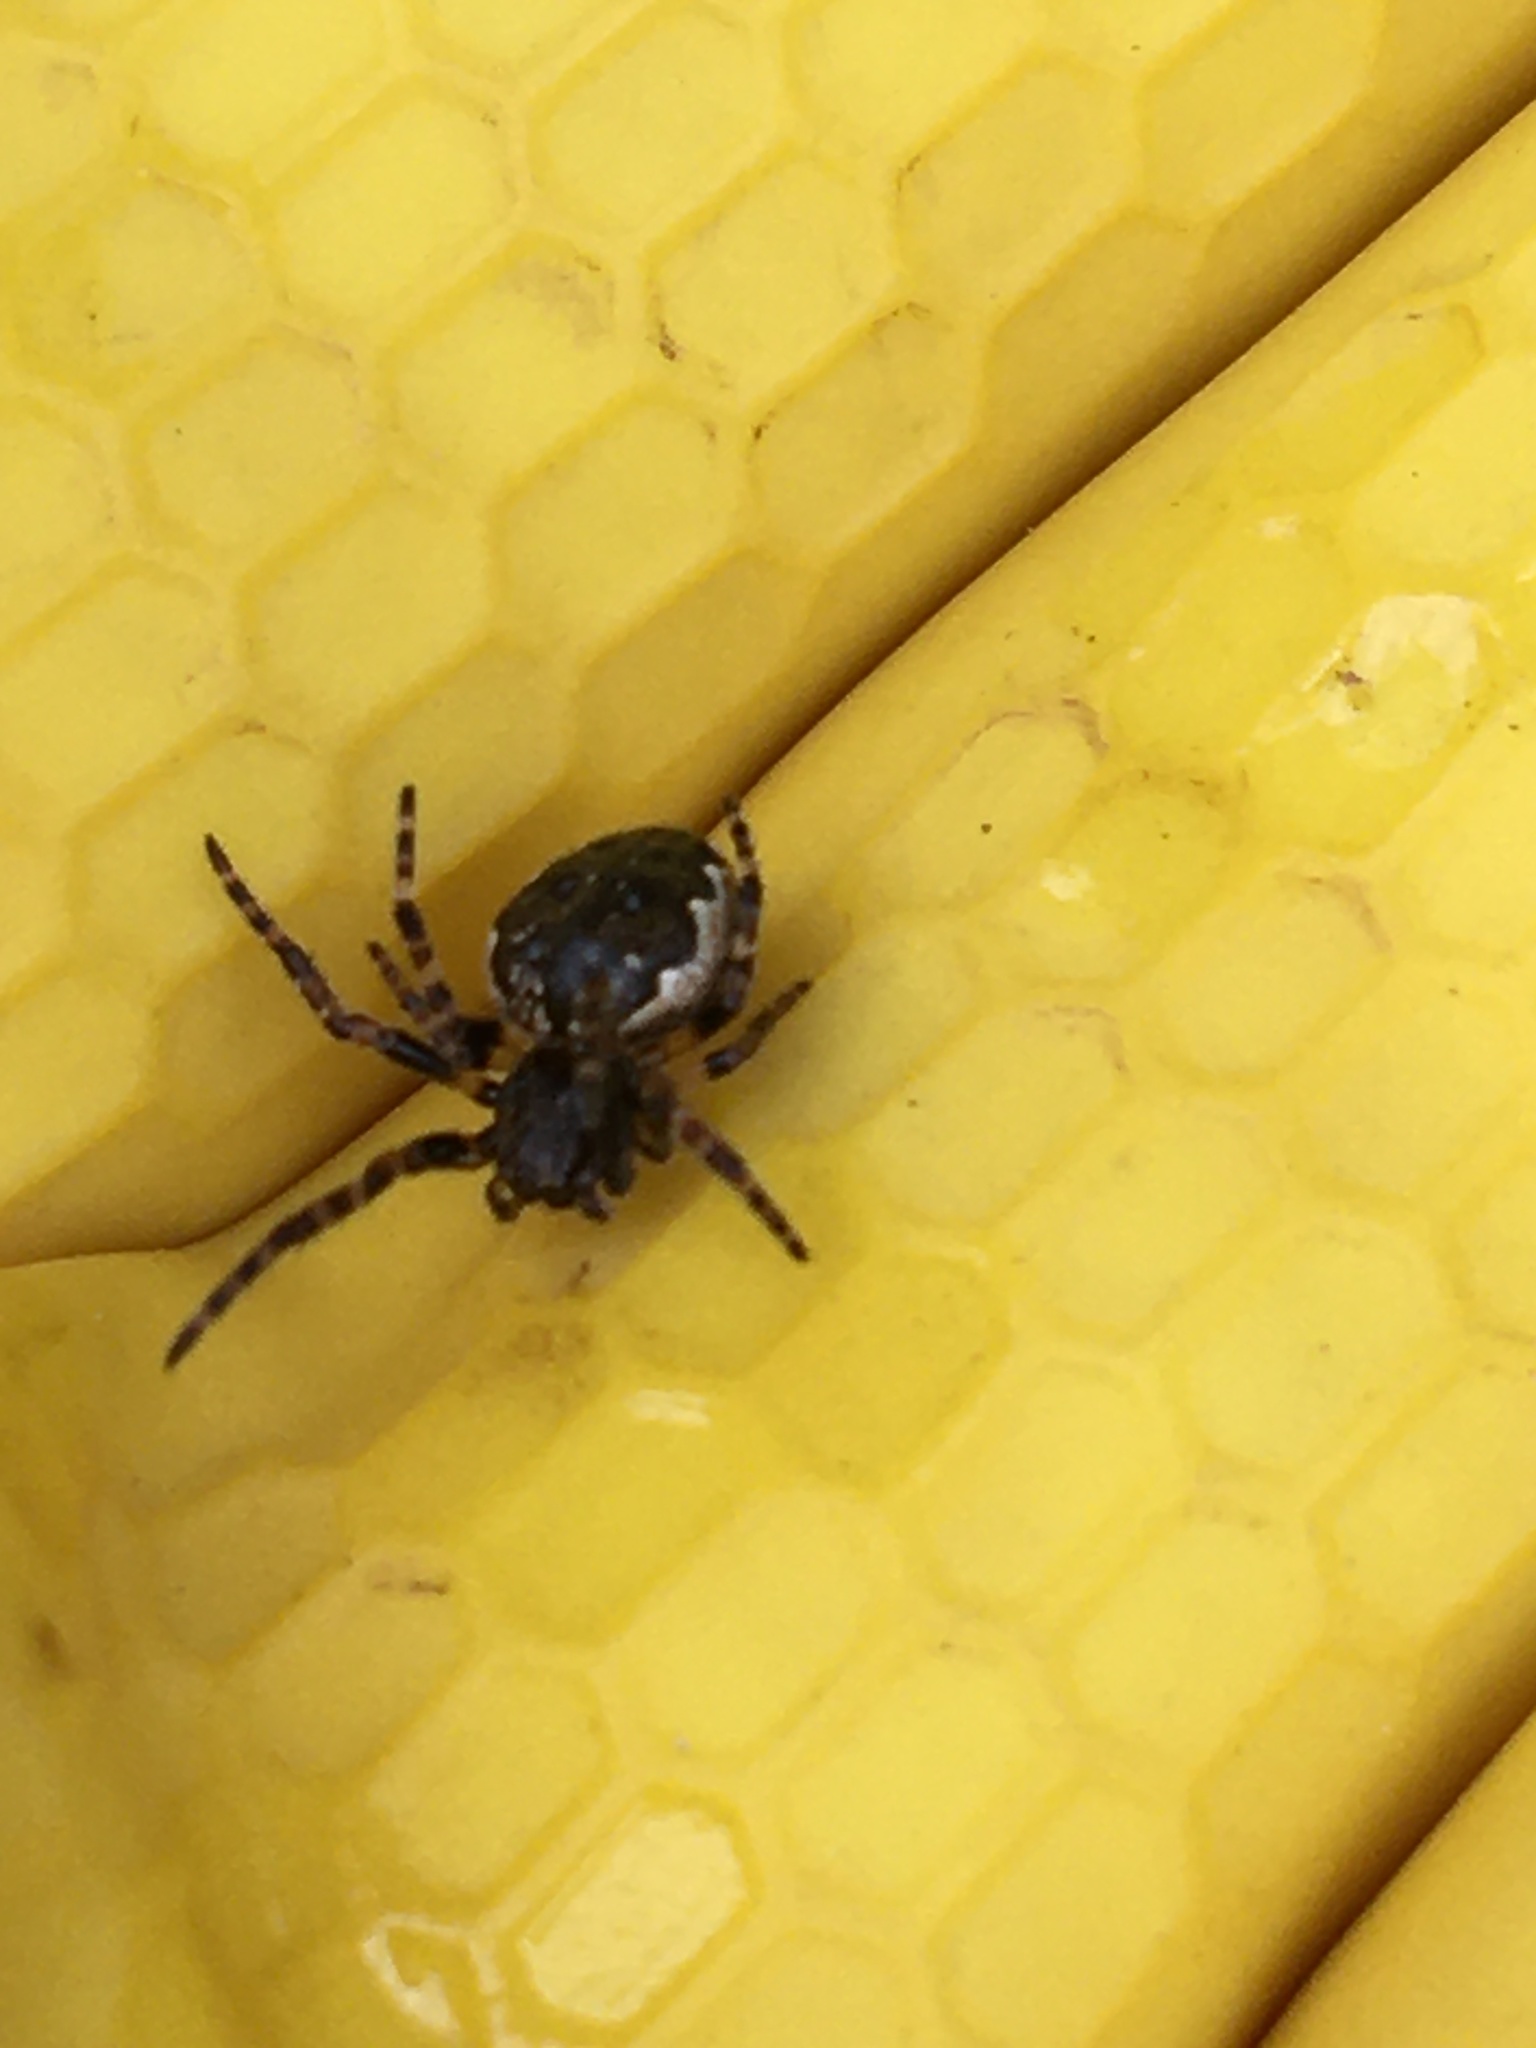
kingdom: Animalia
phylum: Arthropoda
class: Arachnida
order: Araneae
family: Araneidae
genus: Nuctenea
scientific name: Nuctenea umbratica
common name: Toad spider
